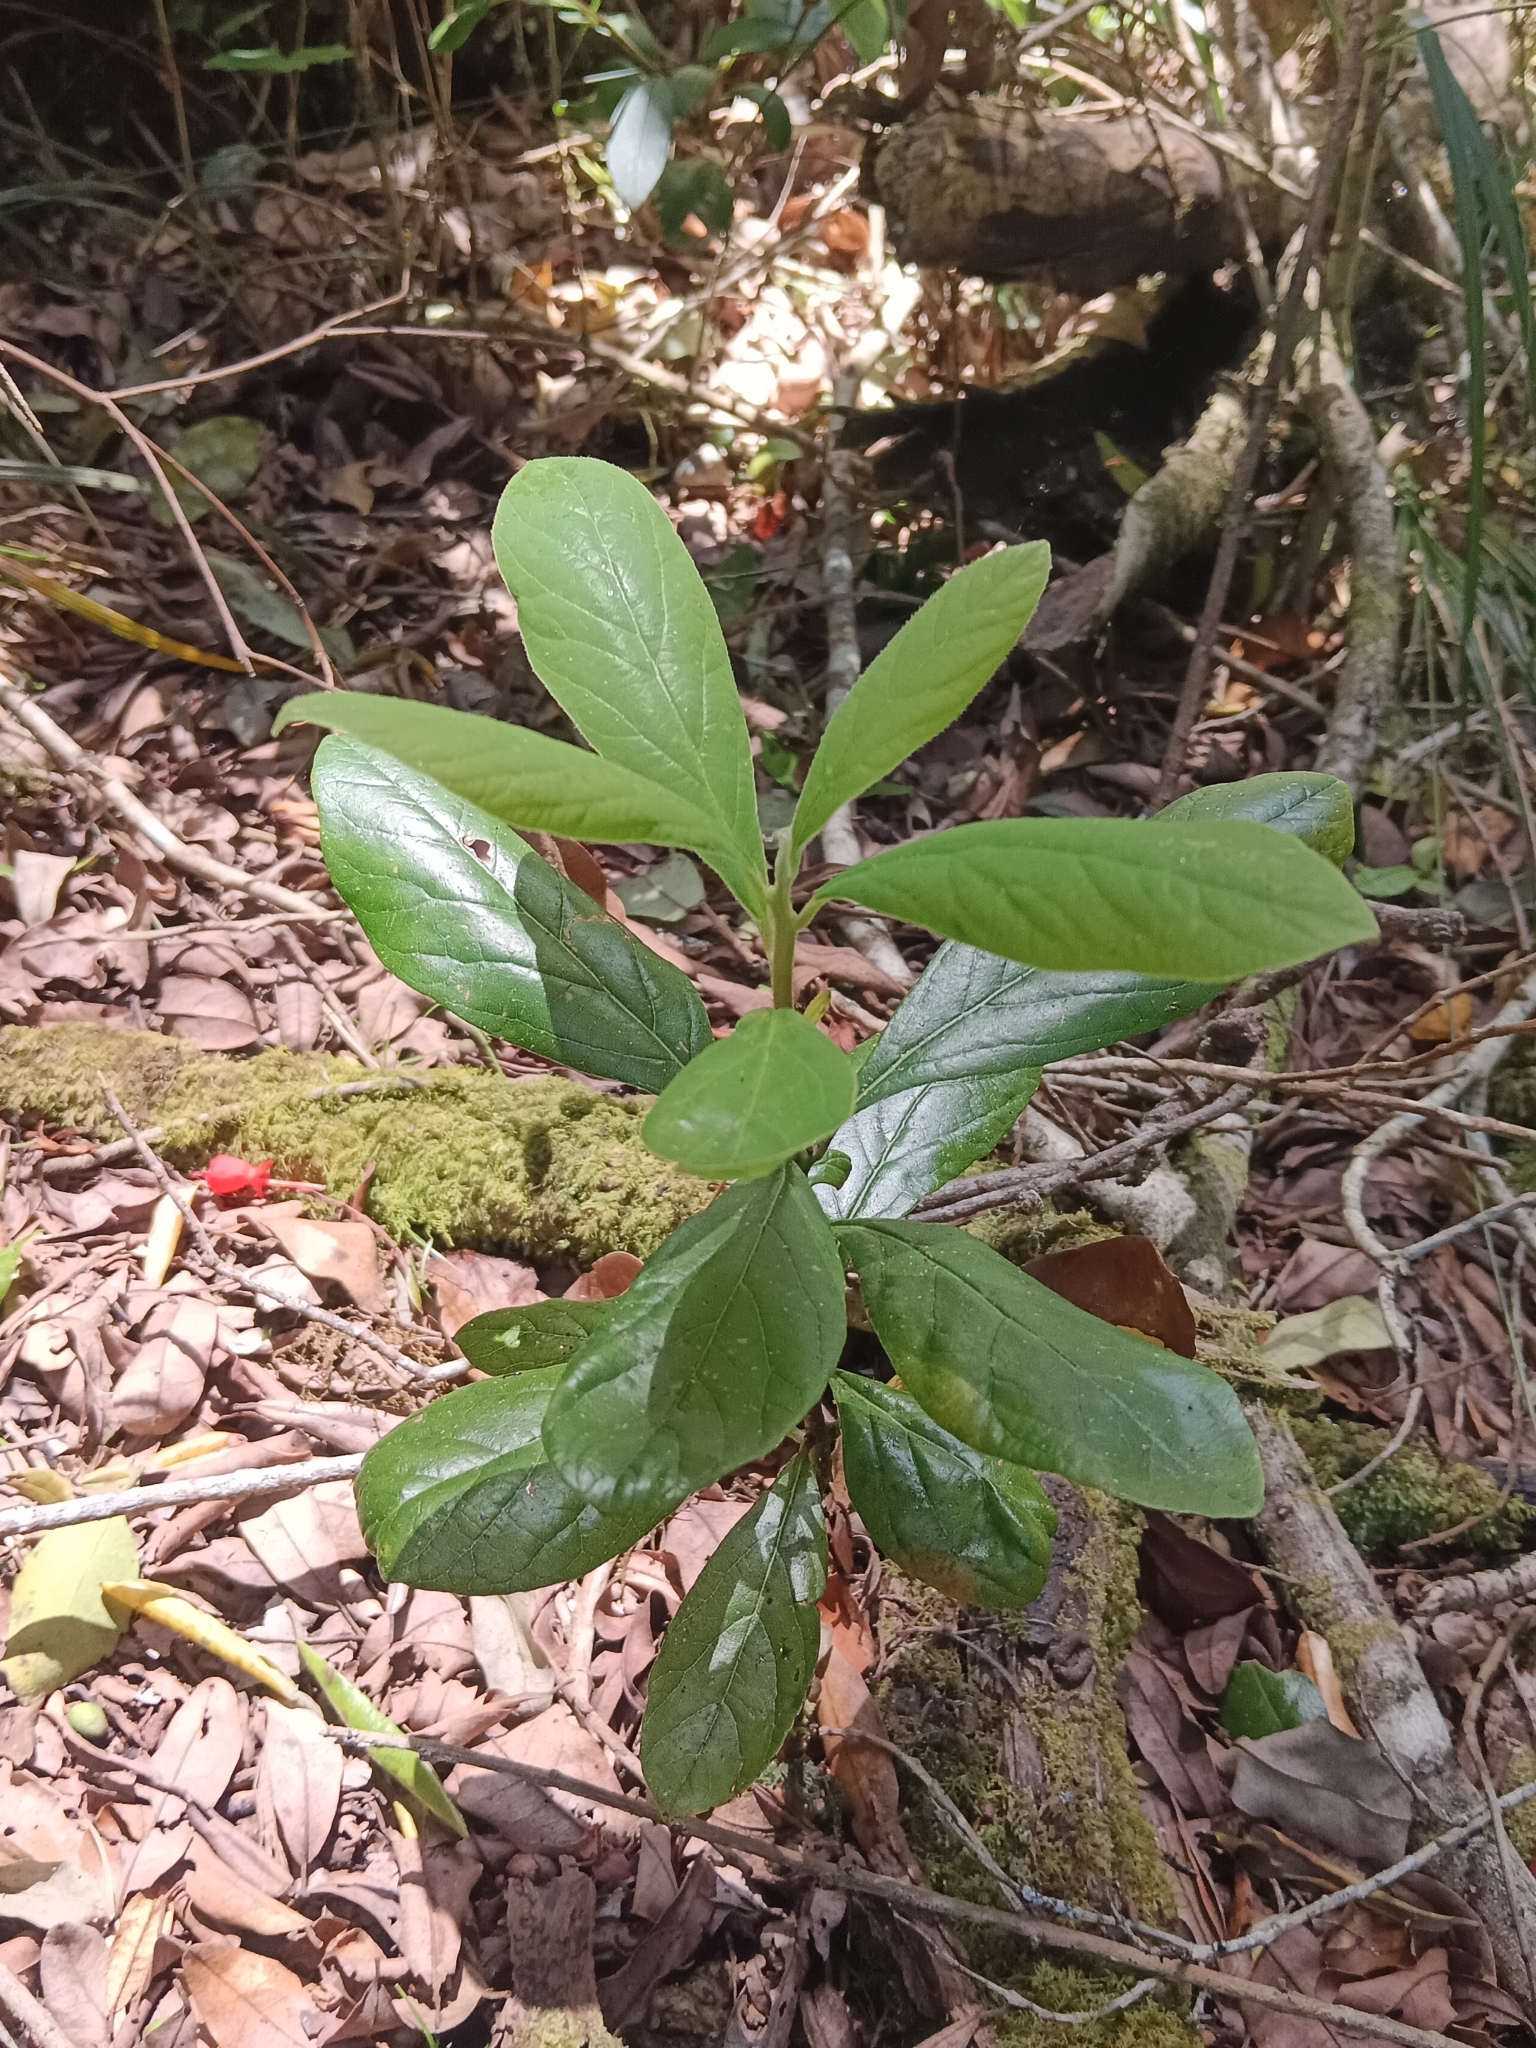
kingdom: Plantae
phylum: Tracheophyta
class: Magnoliopsida
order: Laurales
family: Lauraceae
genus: Persea
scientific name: Persea lingue
